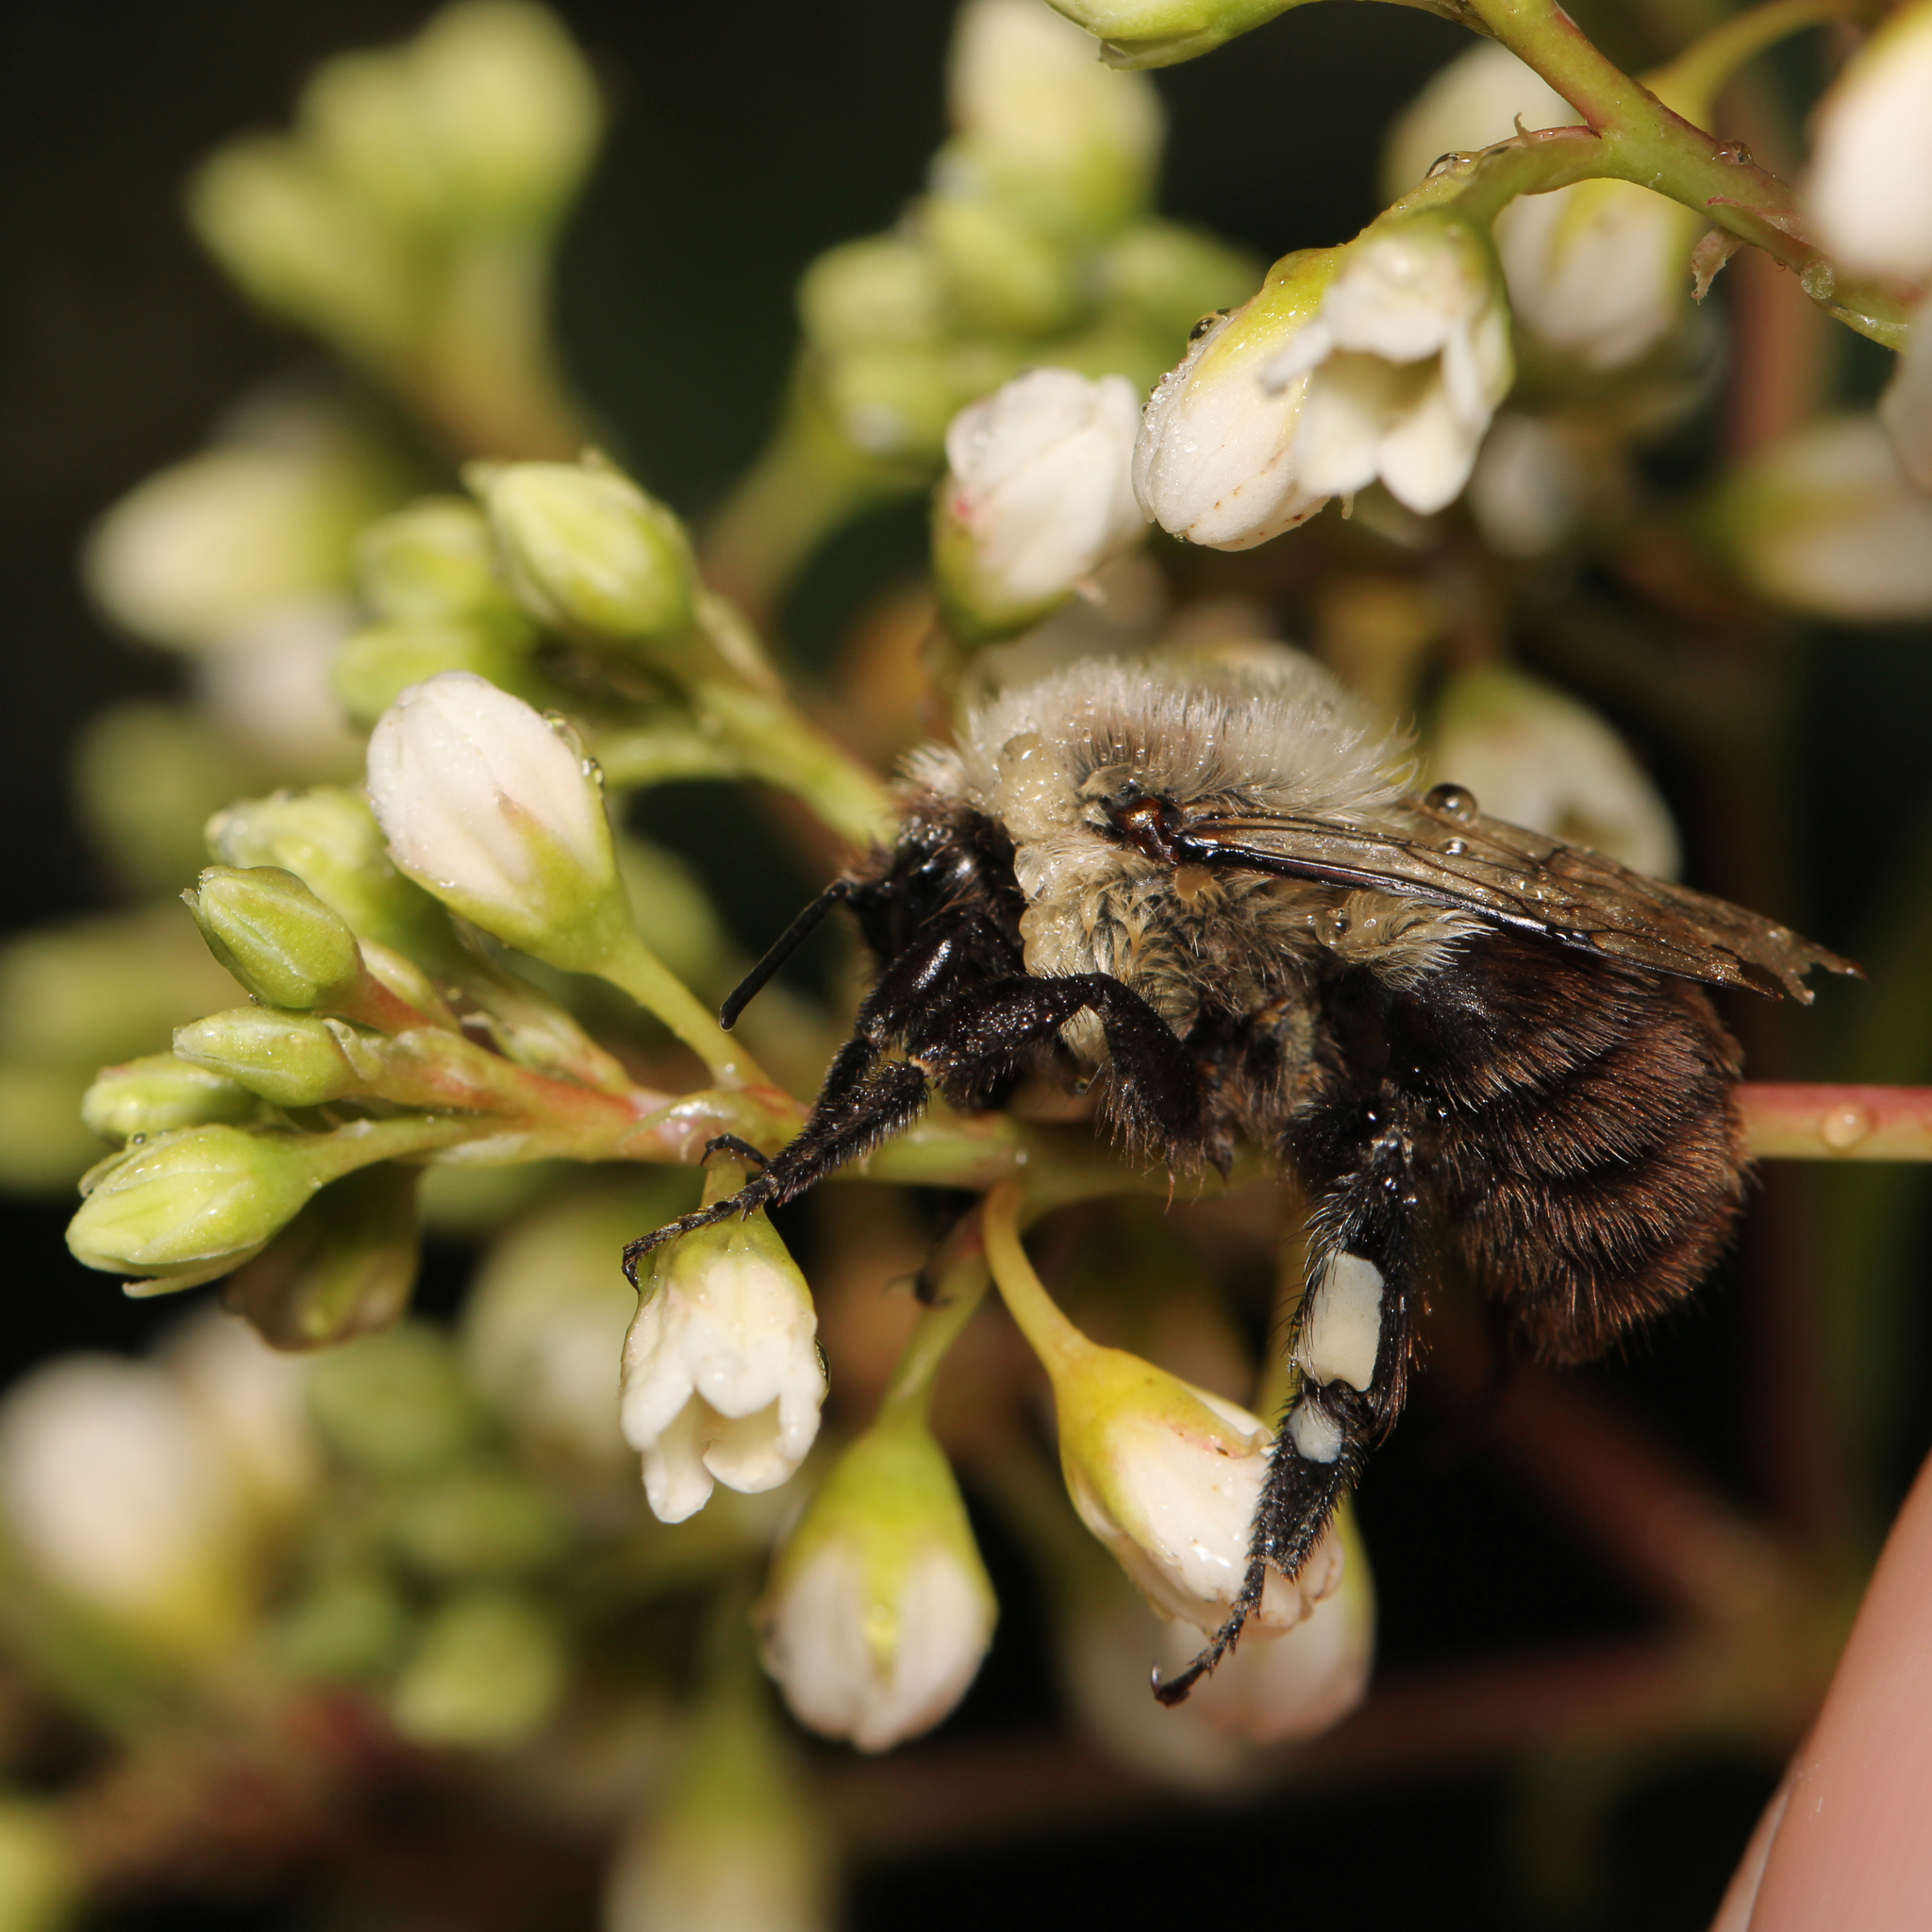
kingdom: Animalia
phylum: Arthropoda
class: Insecta
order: Hymenoptera
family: Apidae
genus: Bombus
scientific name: Bombus impatiens
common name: Common eastern bumble bee
